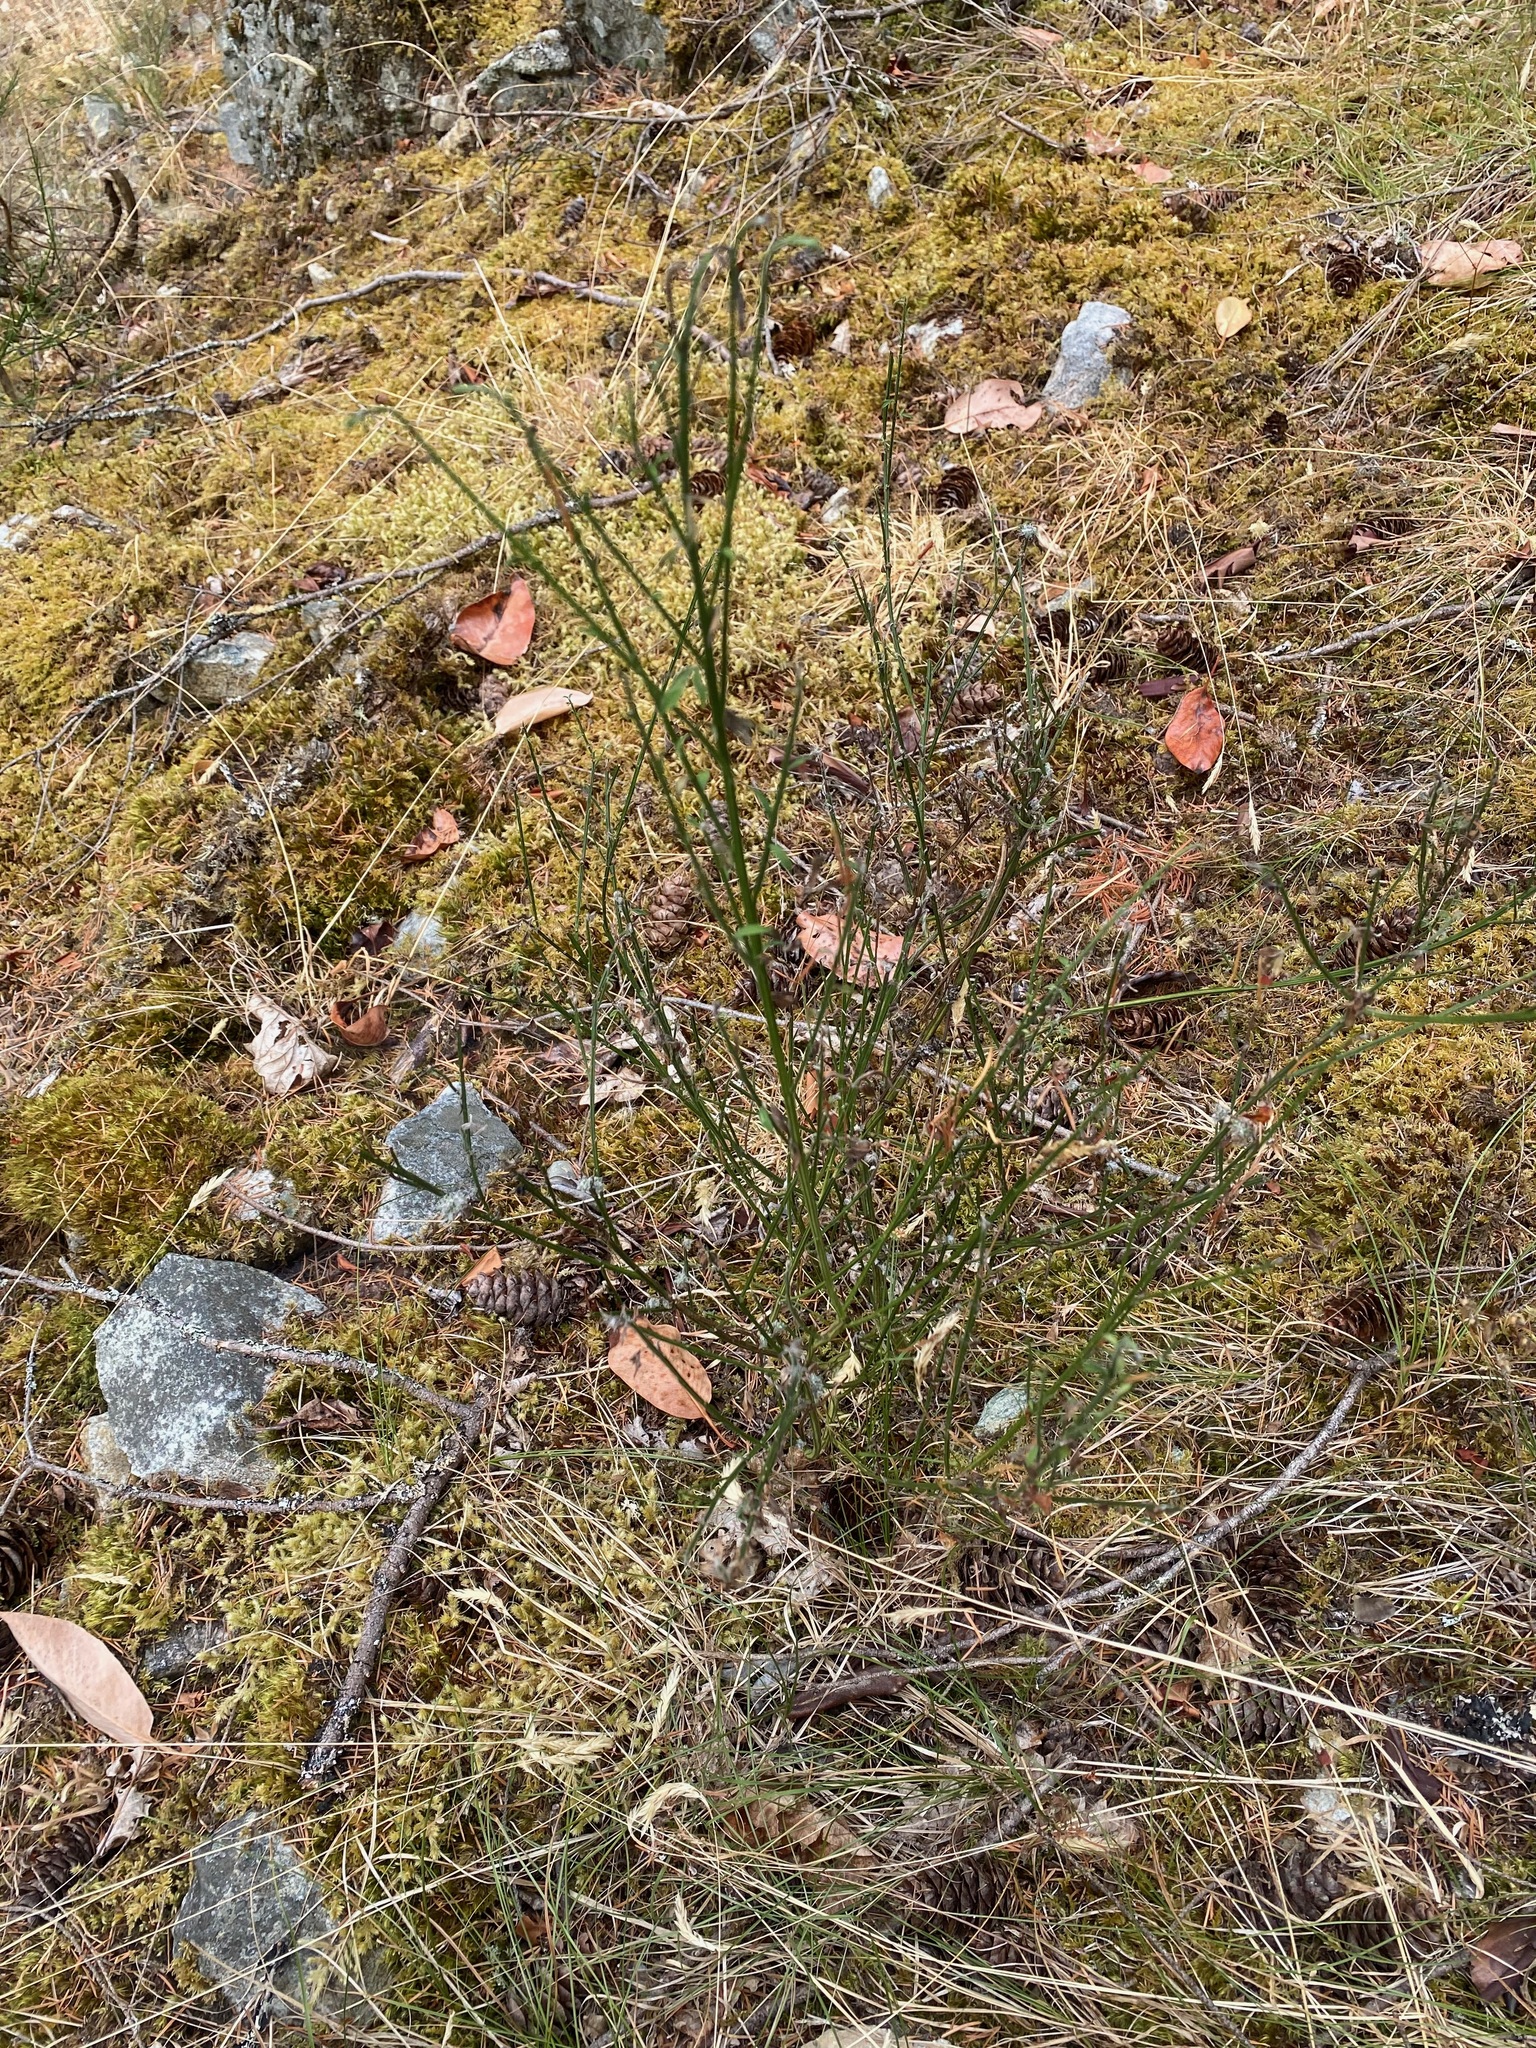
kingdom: Plantae
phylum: Tracheophyta
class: Magnoliopsida
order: Fabales
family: Fabaceae
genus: Cytisus
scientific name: Cytisus scoparius
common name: Scotch broom
